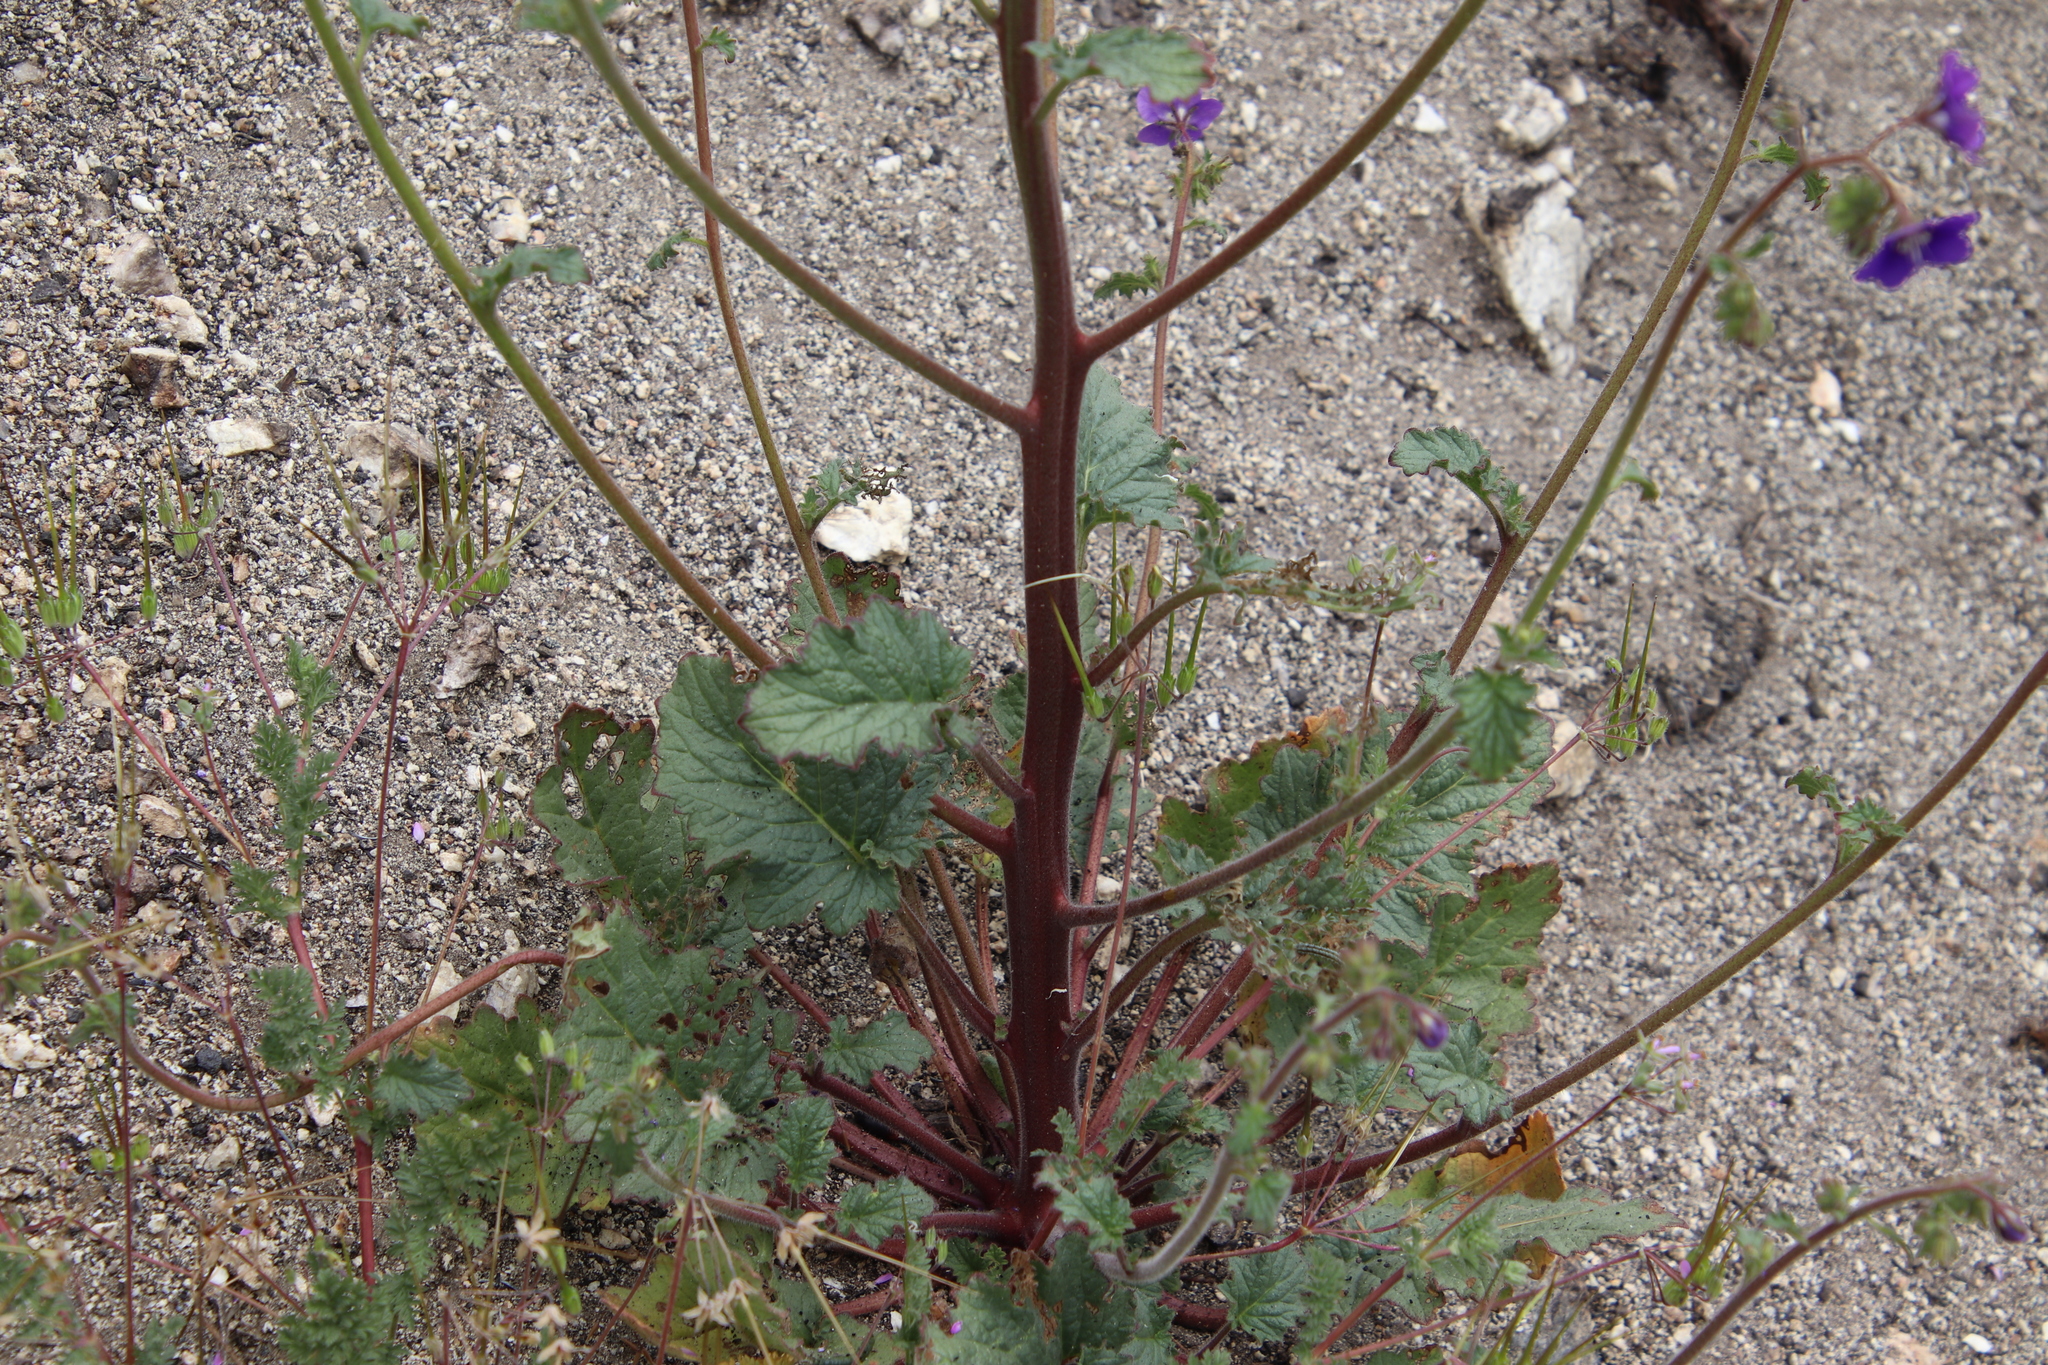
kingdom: Plantae
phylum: Tracheophyta
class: Magnoliopsida
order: Boraginales
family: Hydrophyllaceae
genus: Phacelia
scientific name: Phacelia parryi
